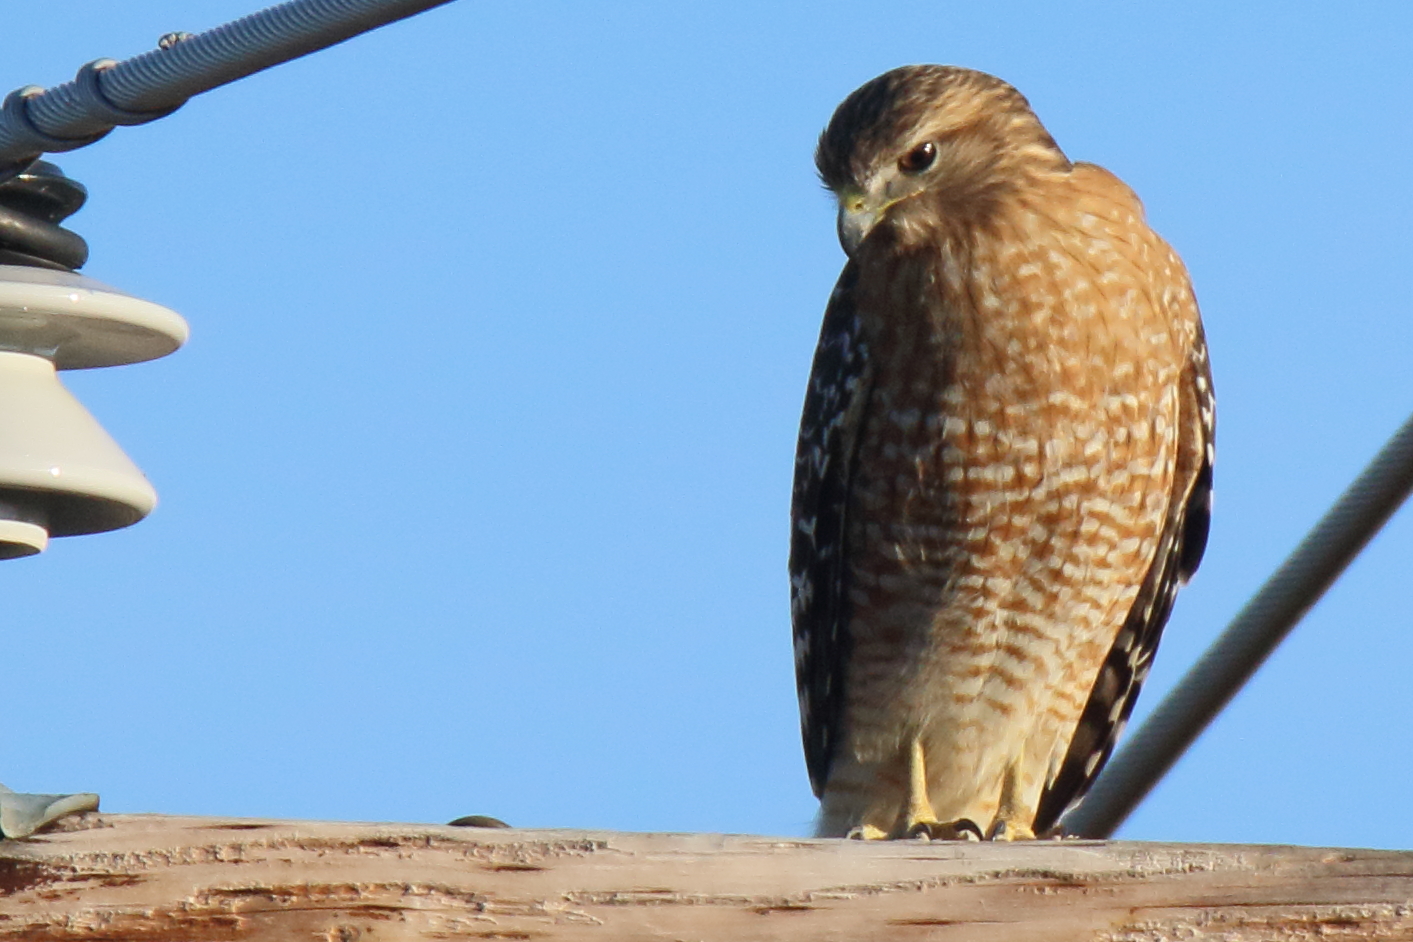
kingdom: Animalia
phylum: Chordata
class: Aves
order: Accipitriformes
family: Accipitridae
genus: Buteo
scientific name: Buteo lineatus
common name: Red-shouldered hawk
